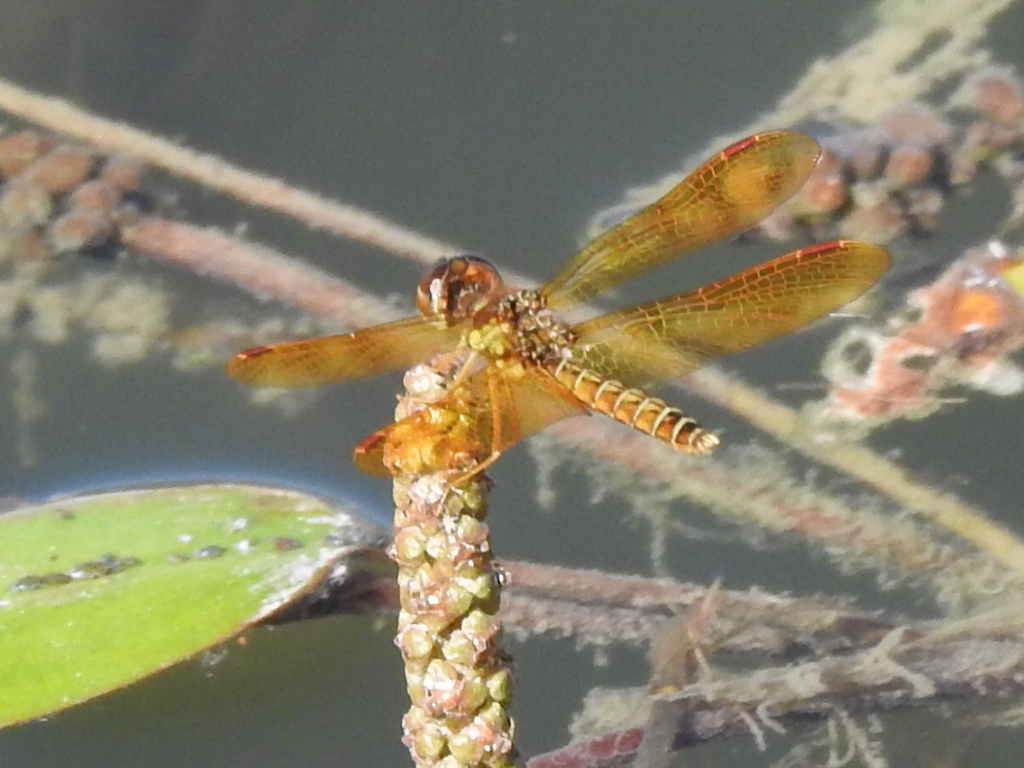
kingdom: Animalia
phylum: Arthropoda
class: Insecta
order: Odonata
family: Libellulidae
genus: Perithemis
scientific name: Perithemis tenera
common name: Eastern amberwing
